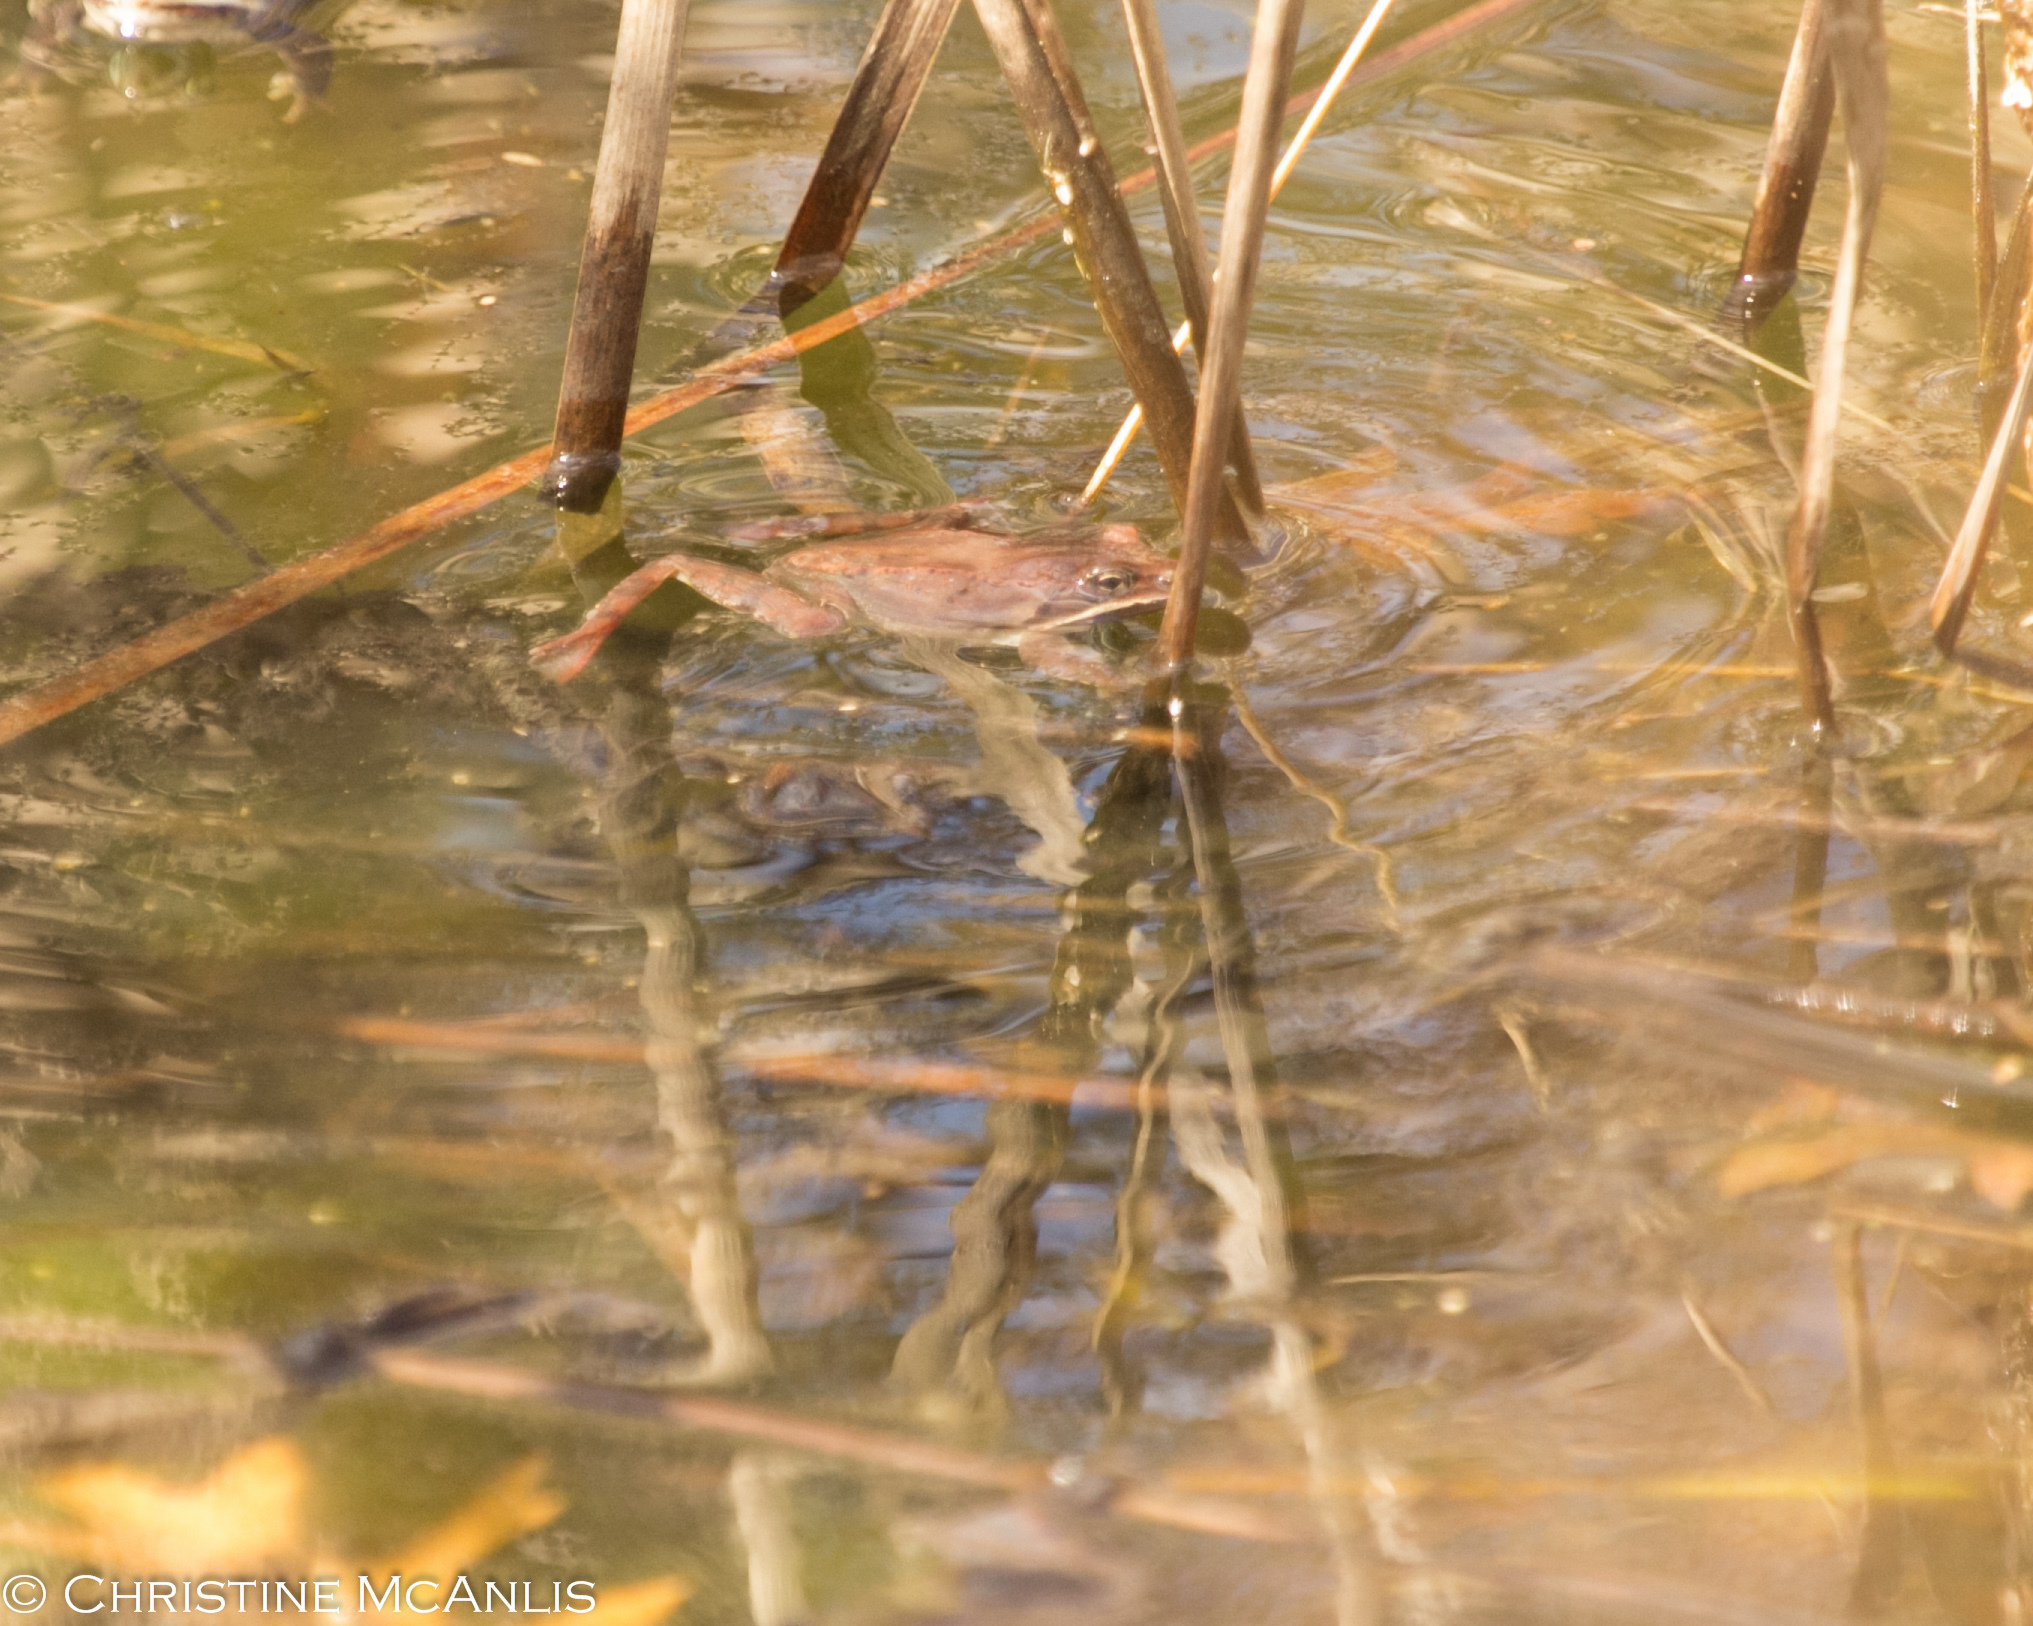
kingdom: Animalia
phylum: Chordata
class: Amphibia
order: Anura
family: Ranidae
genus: Lithobates
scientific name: Lithobates sylvaticus
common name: Wood frog
